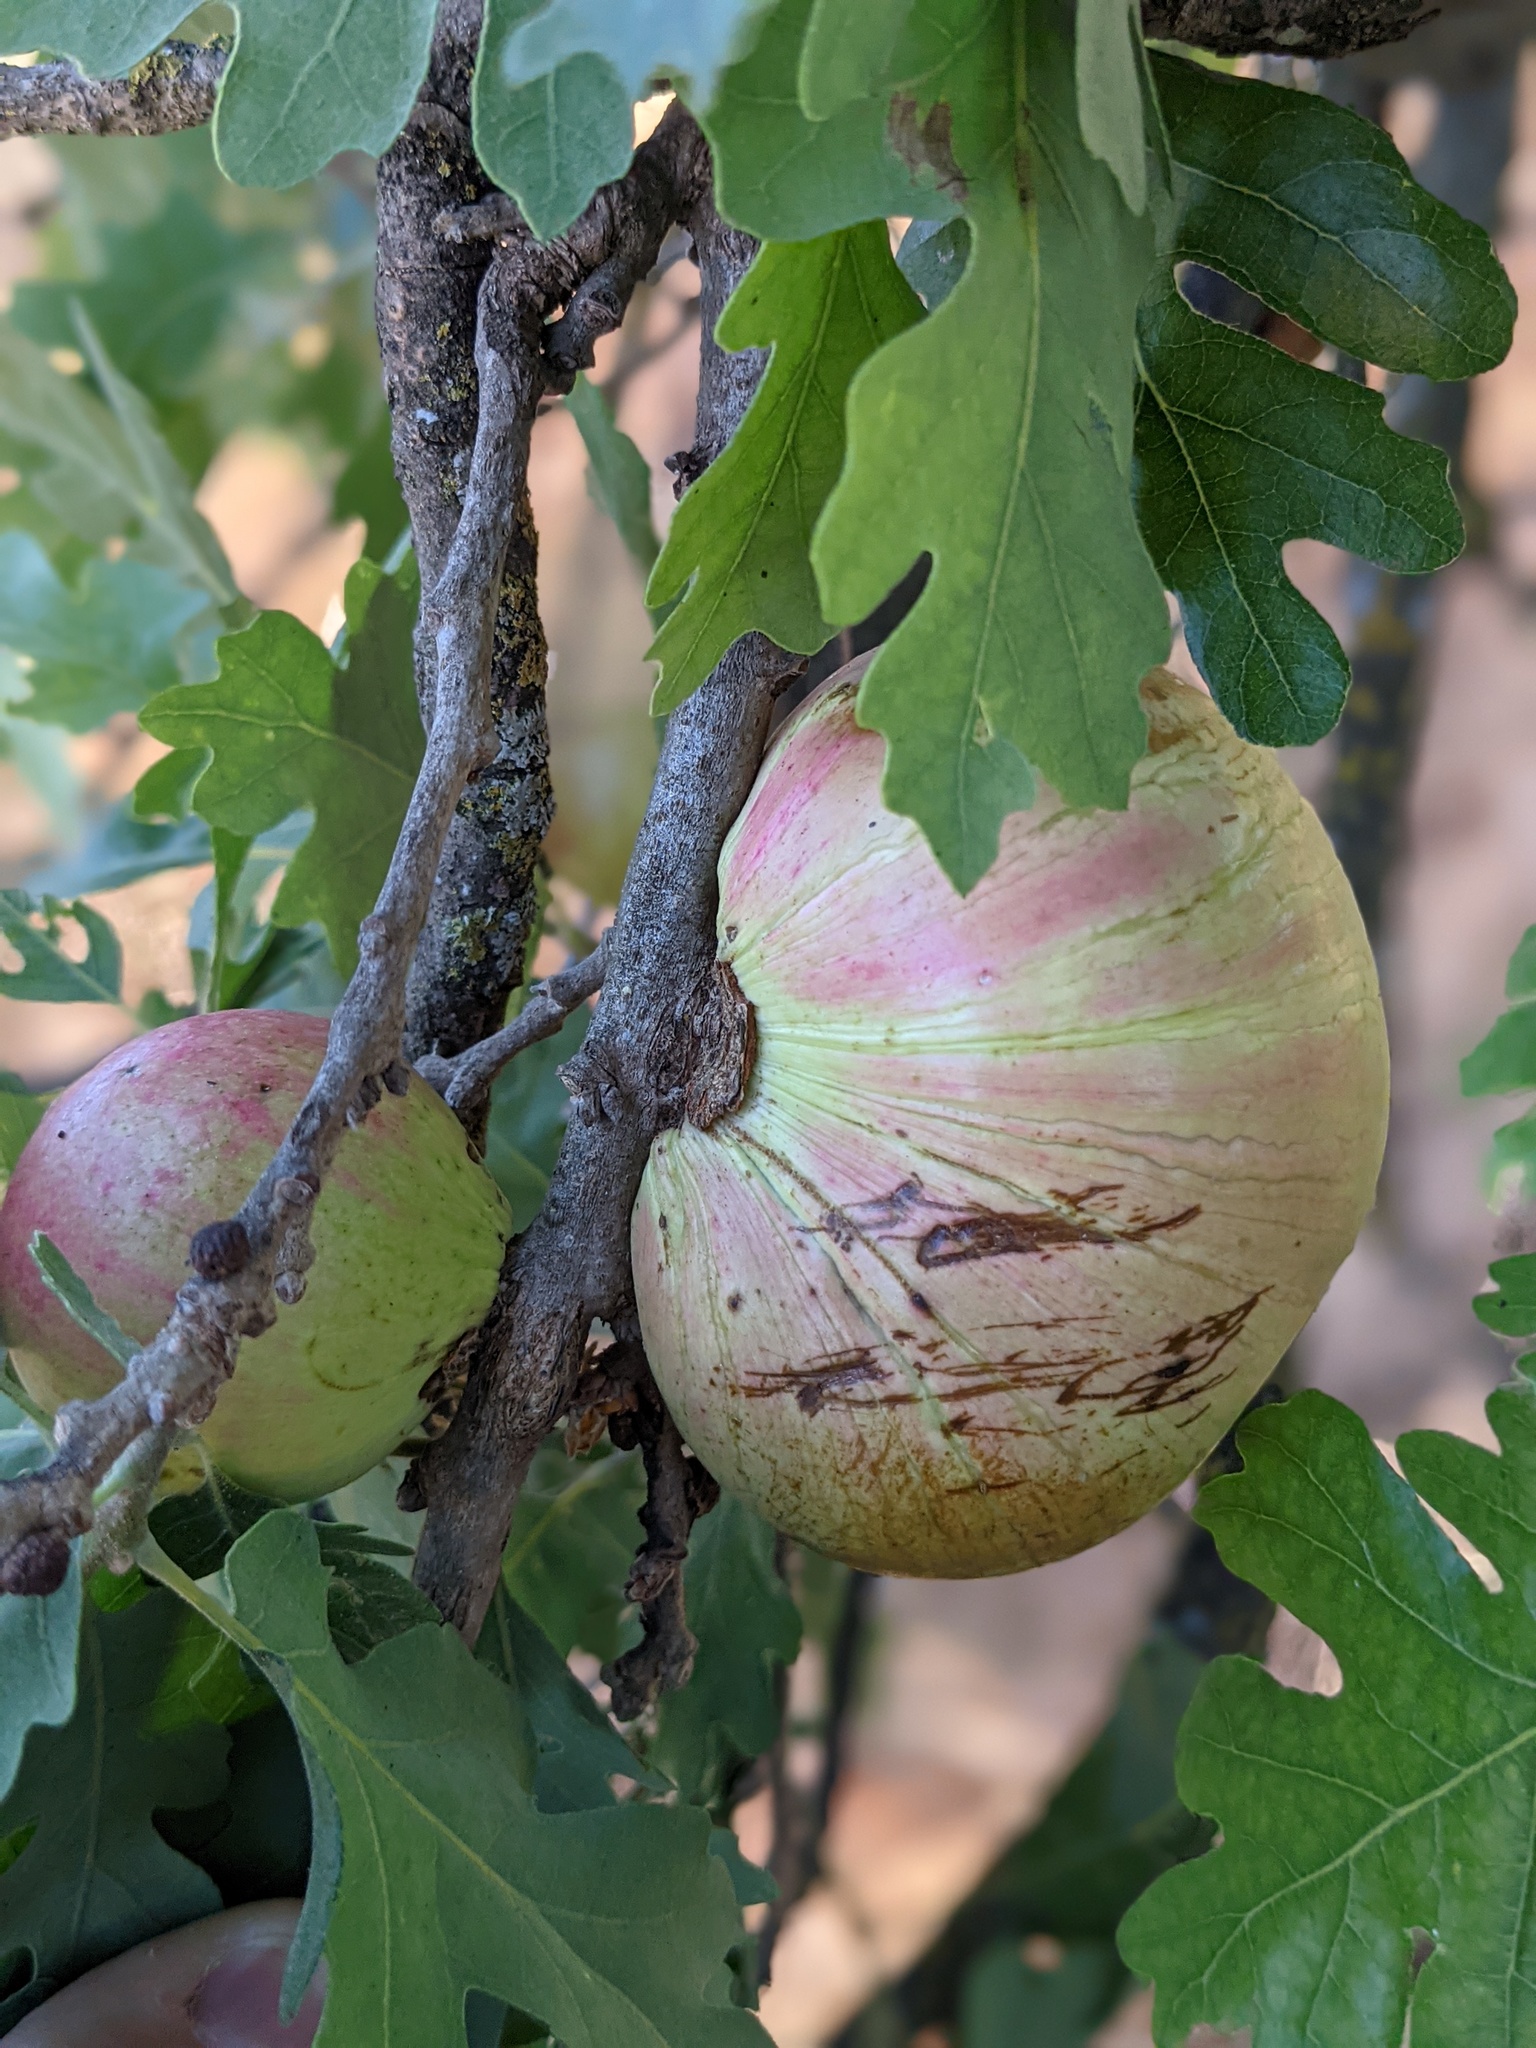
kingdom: Animalia
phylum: Arthropoda
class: Insecta
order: Hymenoptera
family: Cynipidae
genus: Andricus
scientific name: Andricus quercuscalifornicus
